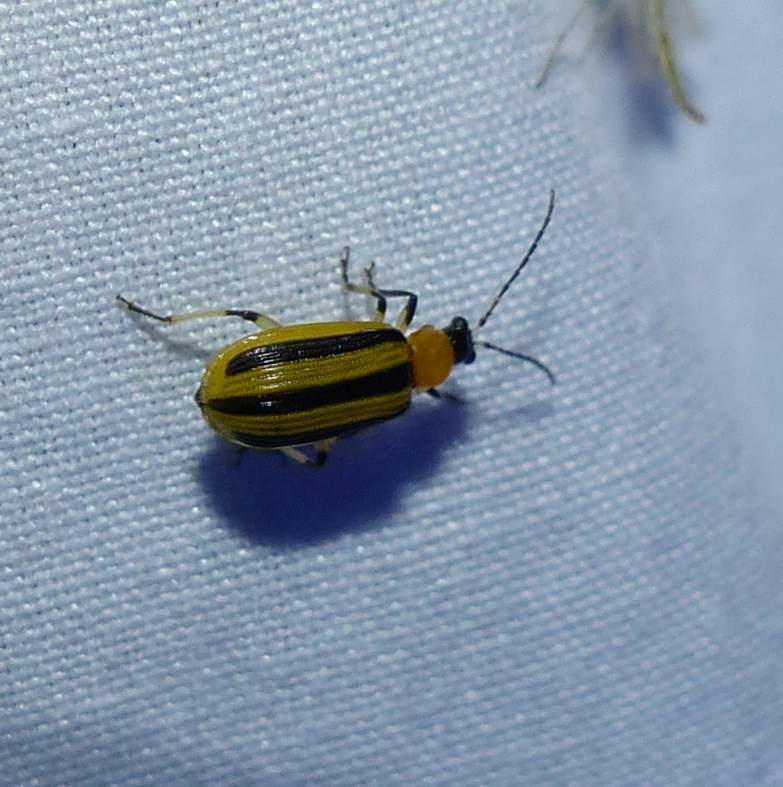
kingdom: Animalia
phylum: Arthropoda
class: Insecta
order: Coleoptera
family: Chrysomelidae
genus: Acalymma
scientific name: Acalymma vittatum
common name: Striped cucumber beetle
